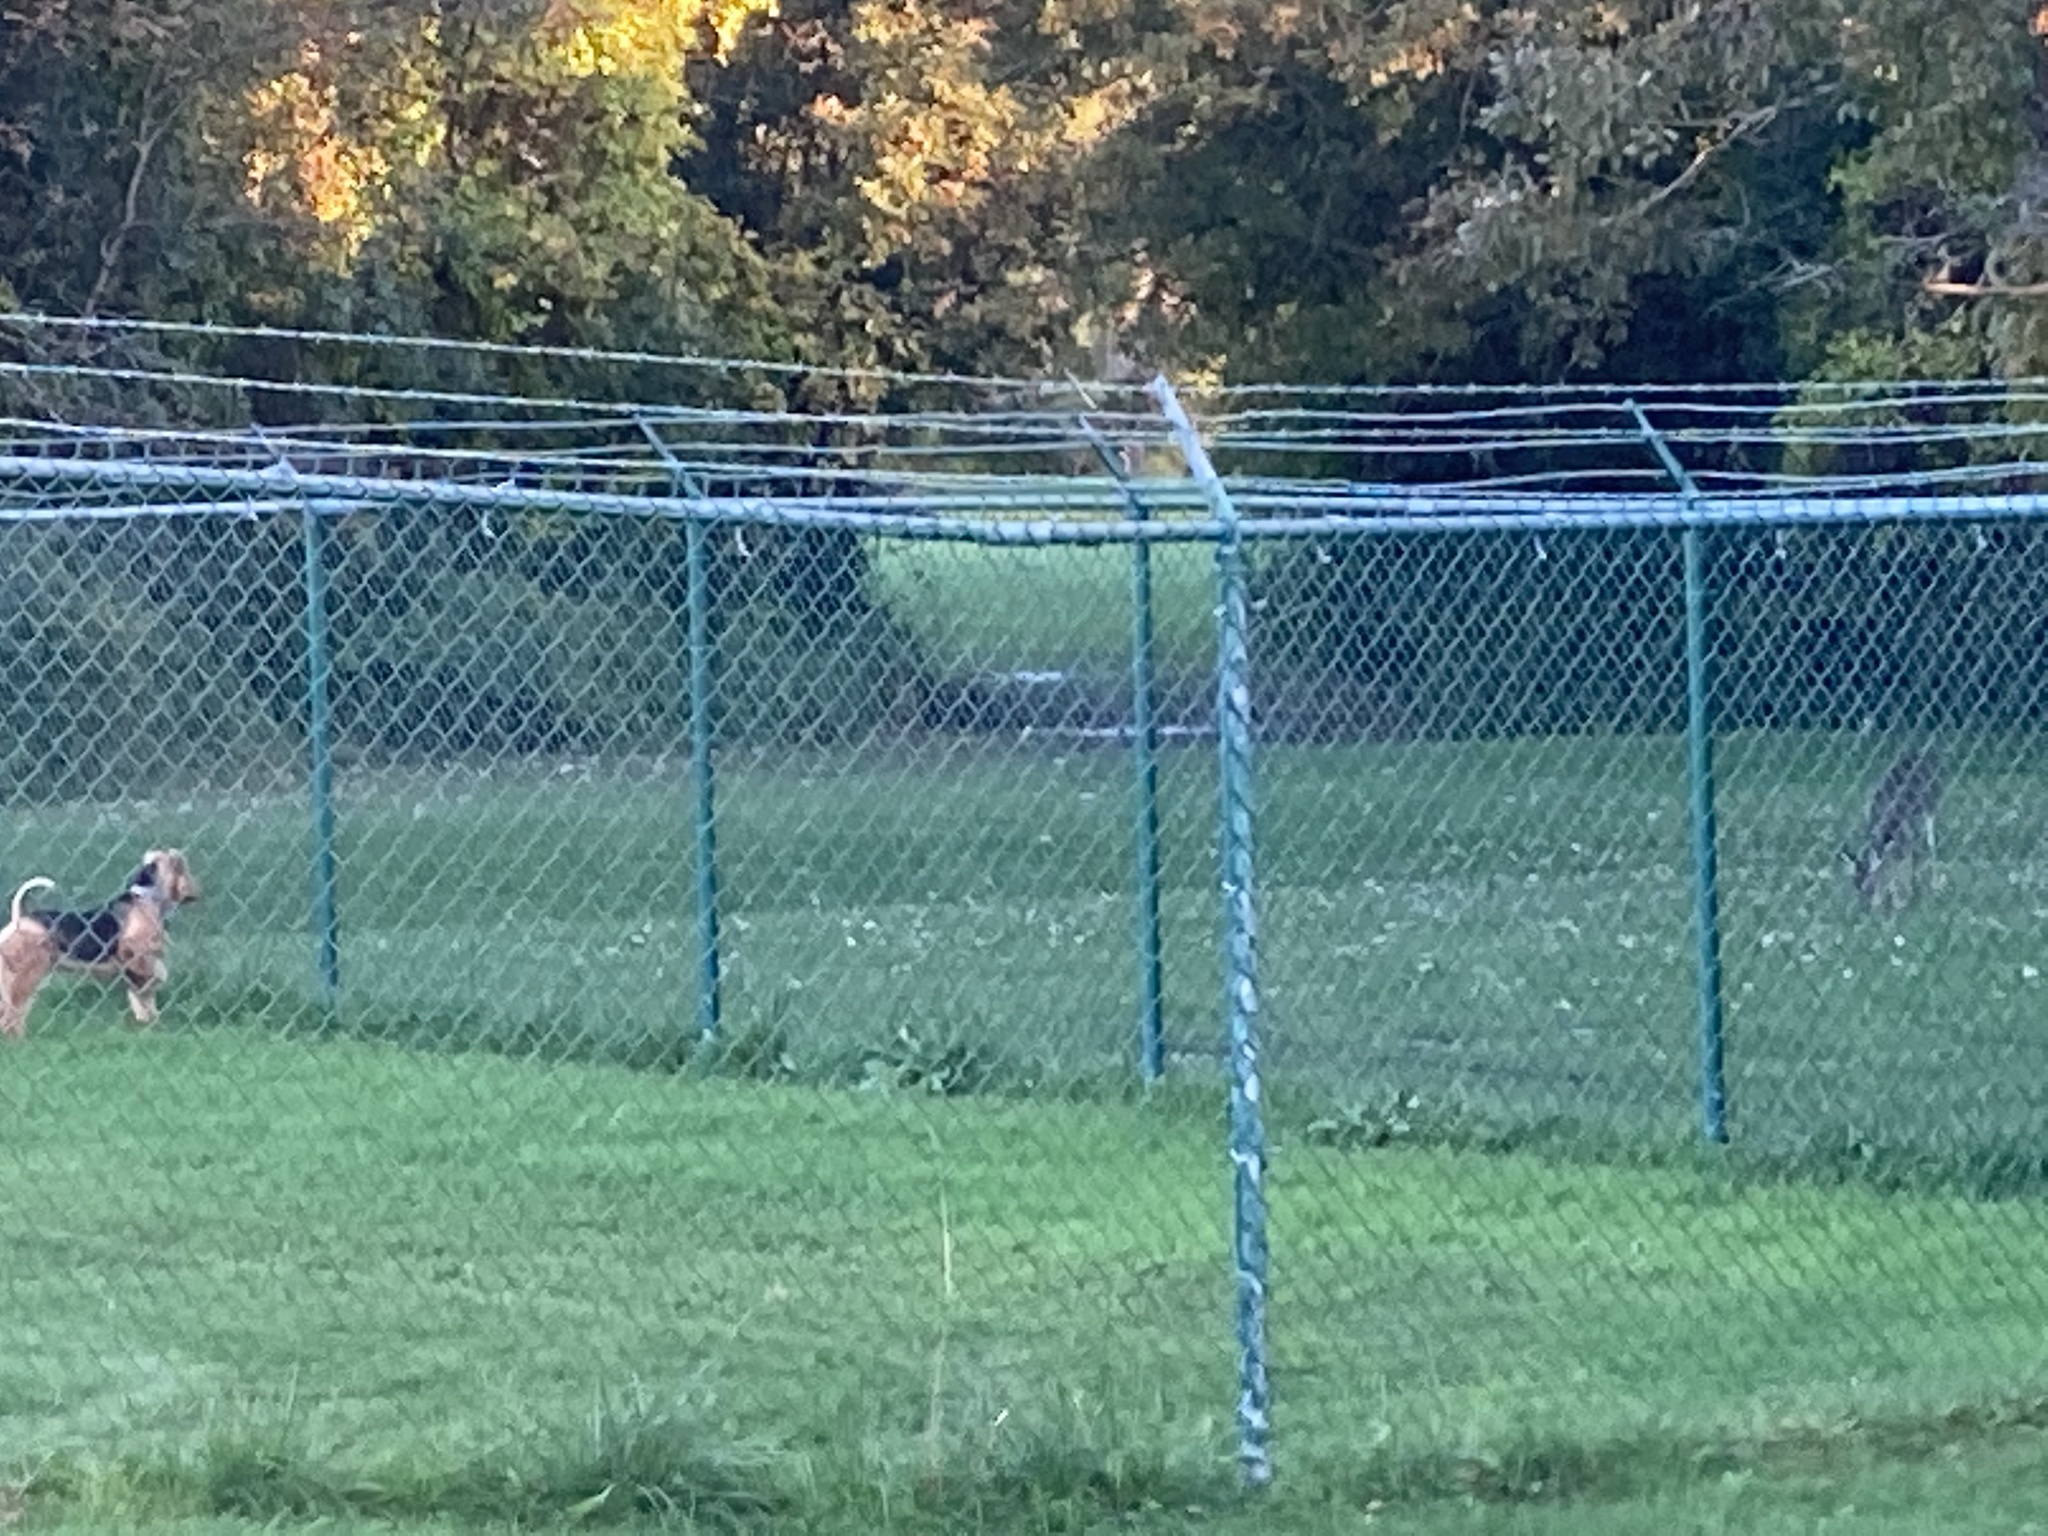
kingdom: Animalia
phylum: Chordata
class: Mammalia
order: Artiodactyla
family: Cervidae
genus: Odocoileus
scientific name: Odocoileus virginianus
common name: White-tailed deer
